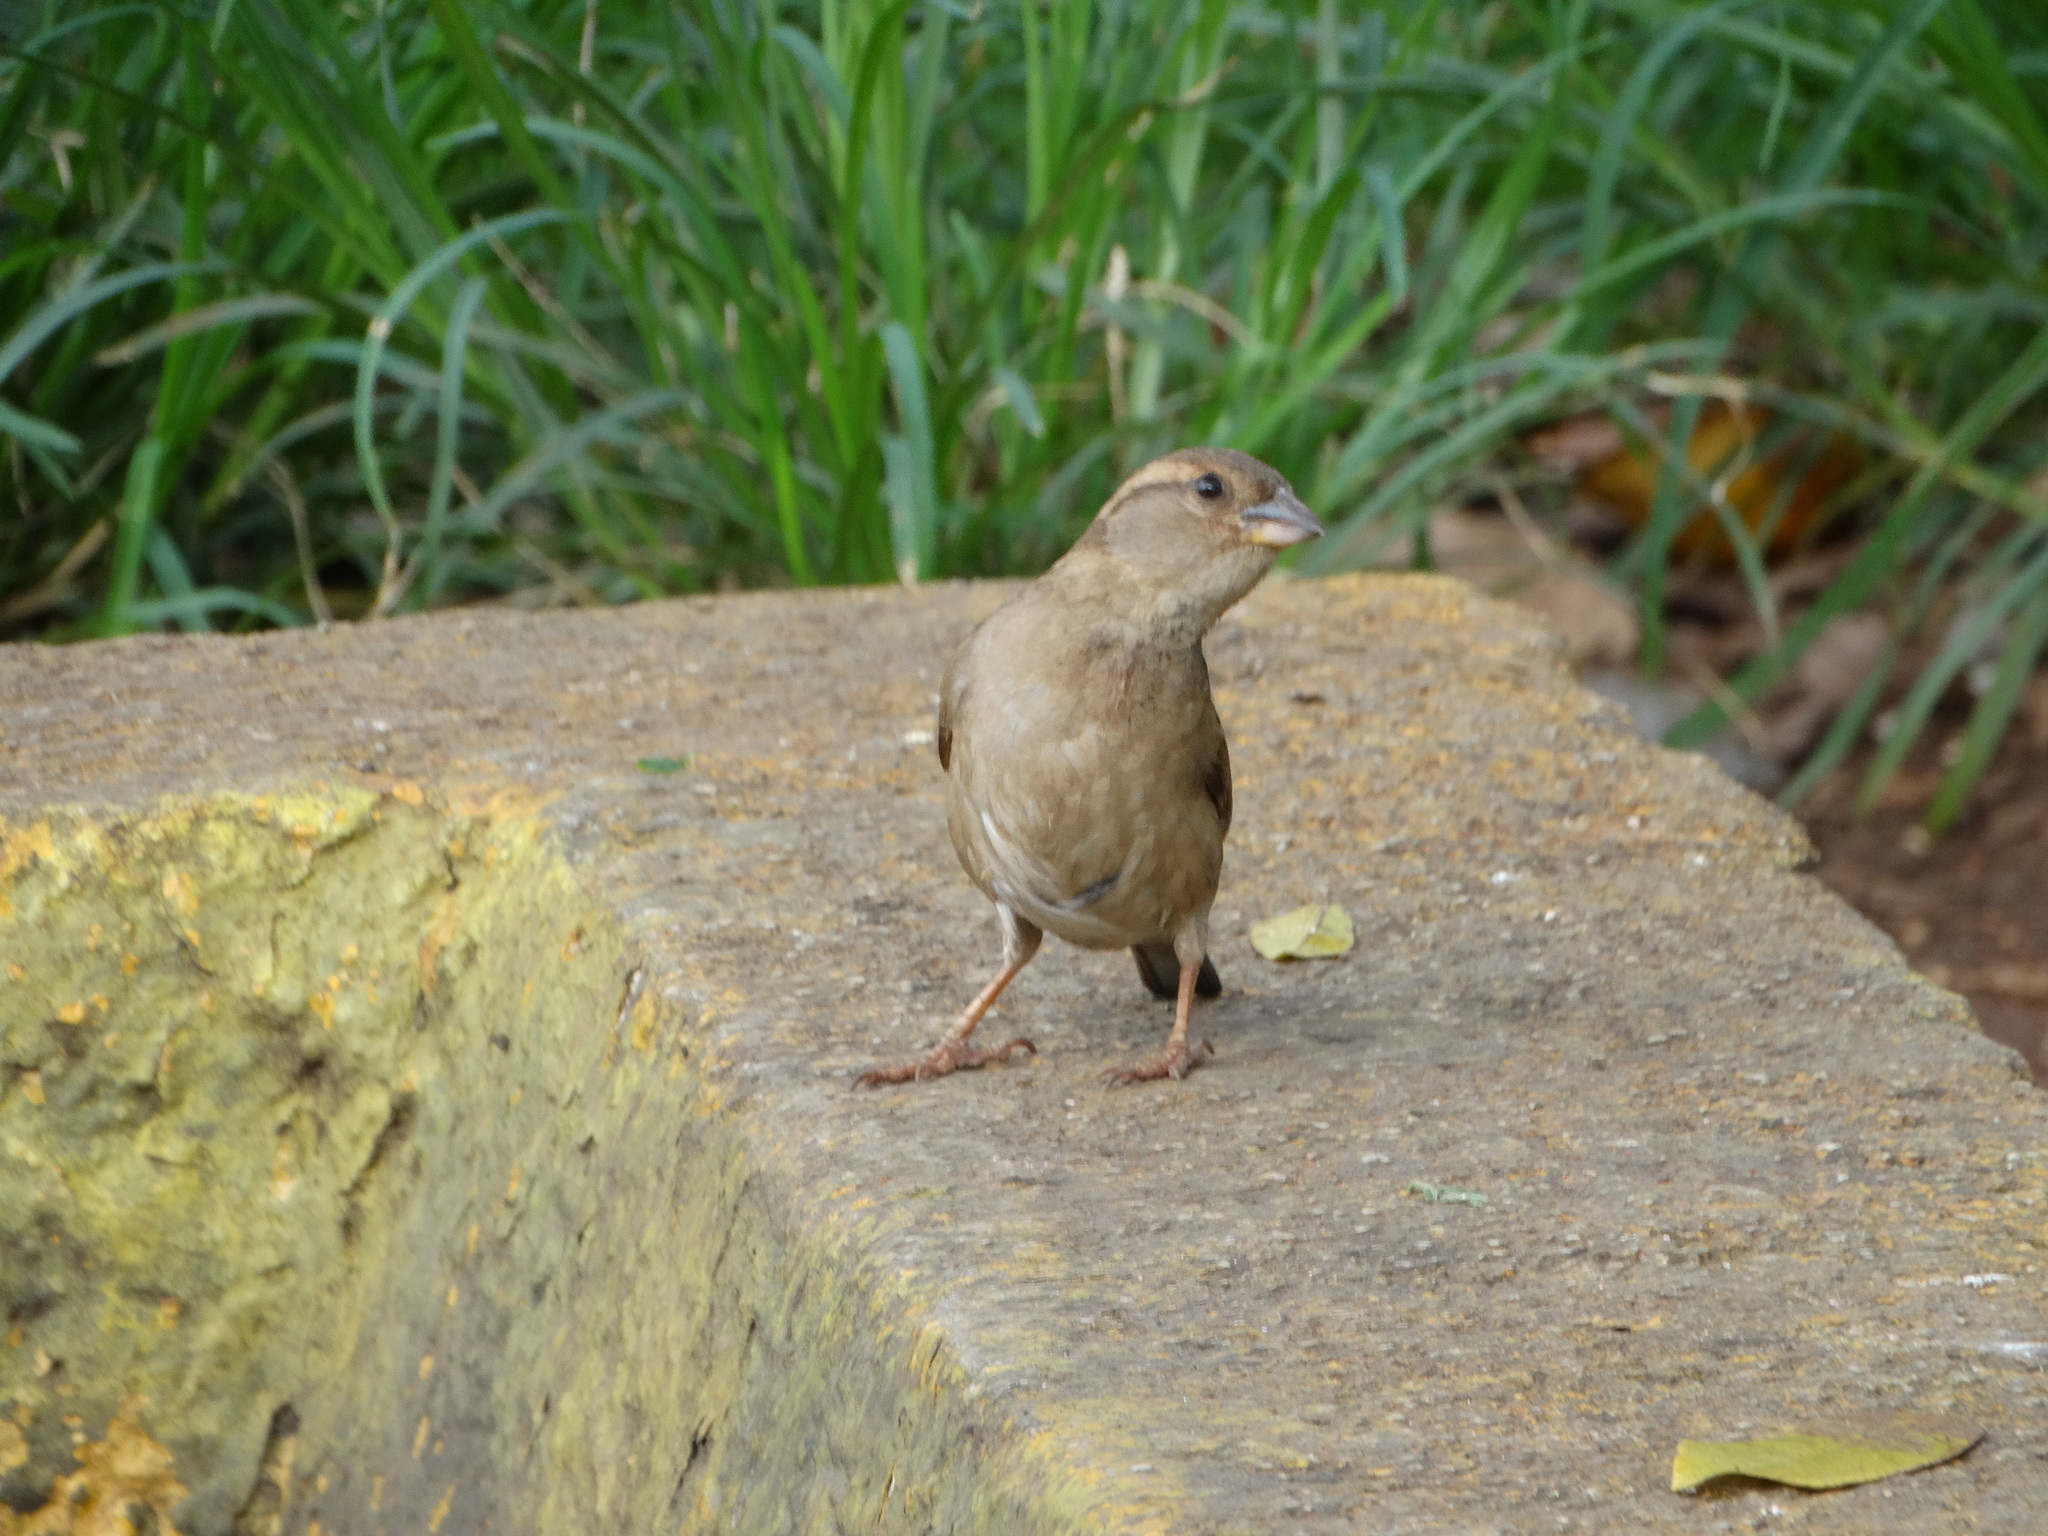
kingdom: Animalia
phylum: Chordata
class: Aves
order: Passeriformes
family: Passeridae
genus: Passer
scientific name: Passer domesticus
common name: House sparrow
